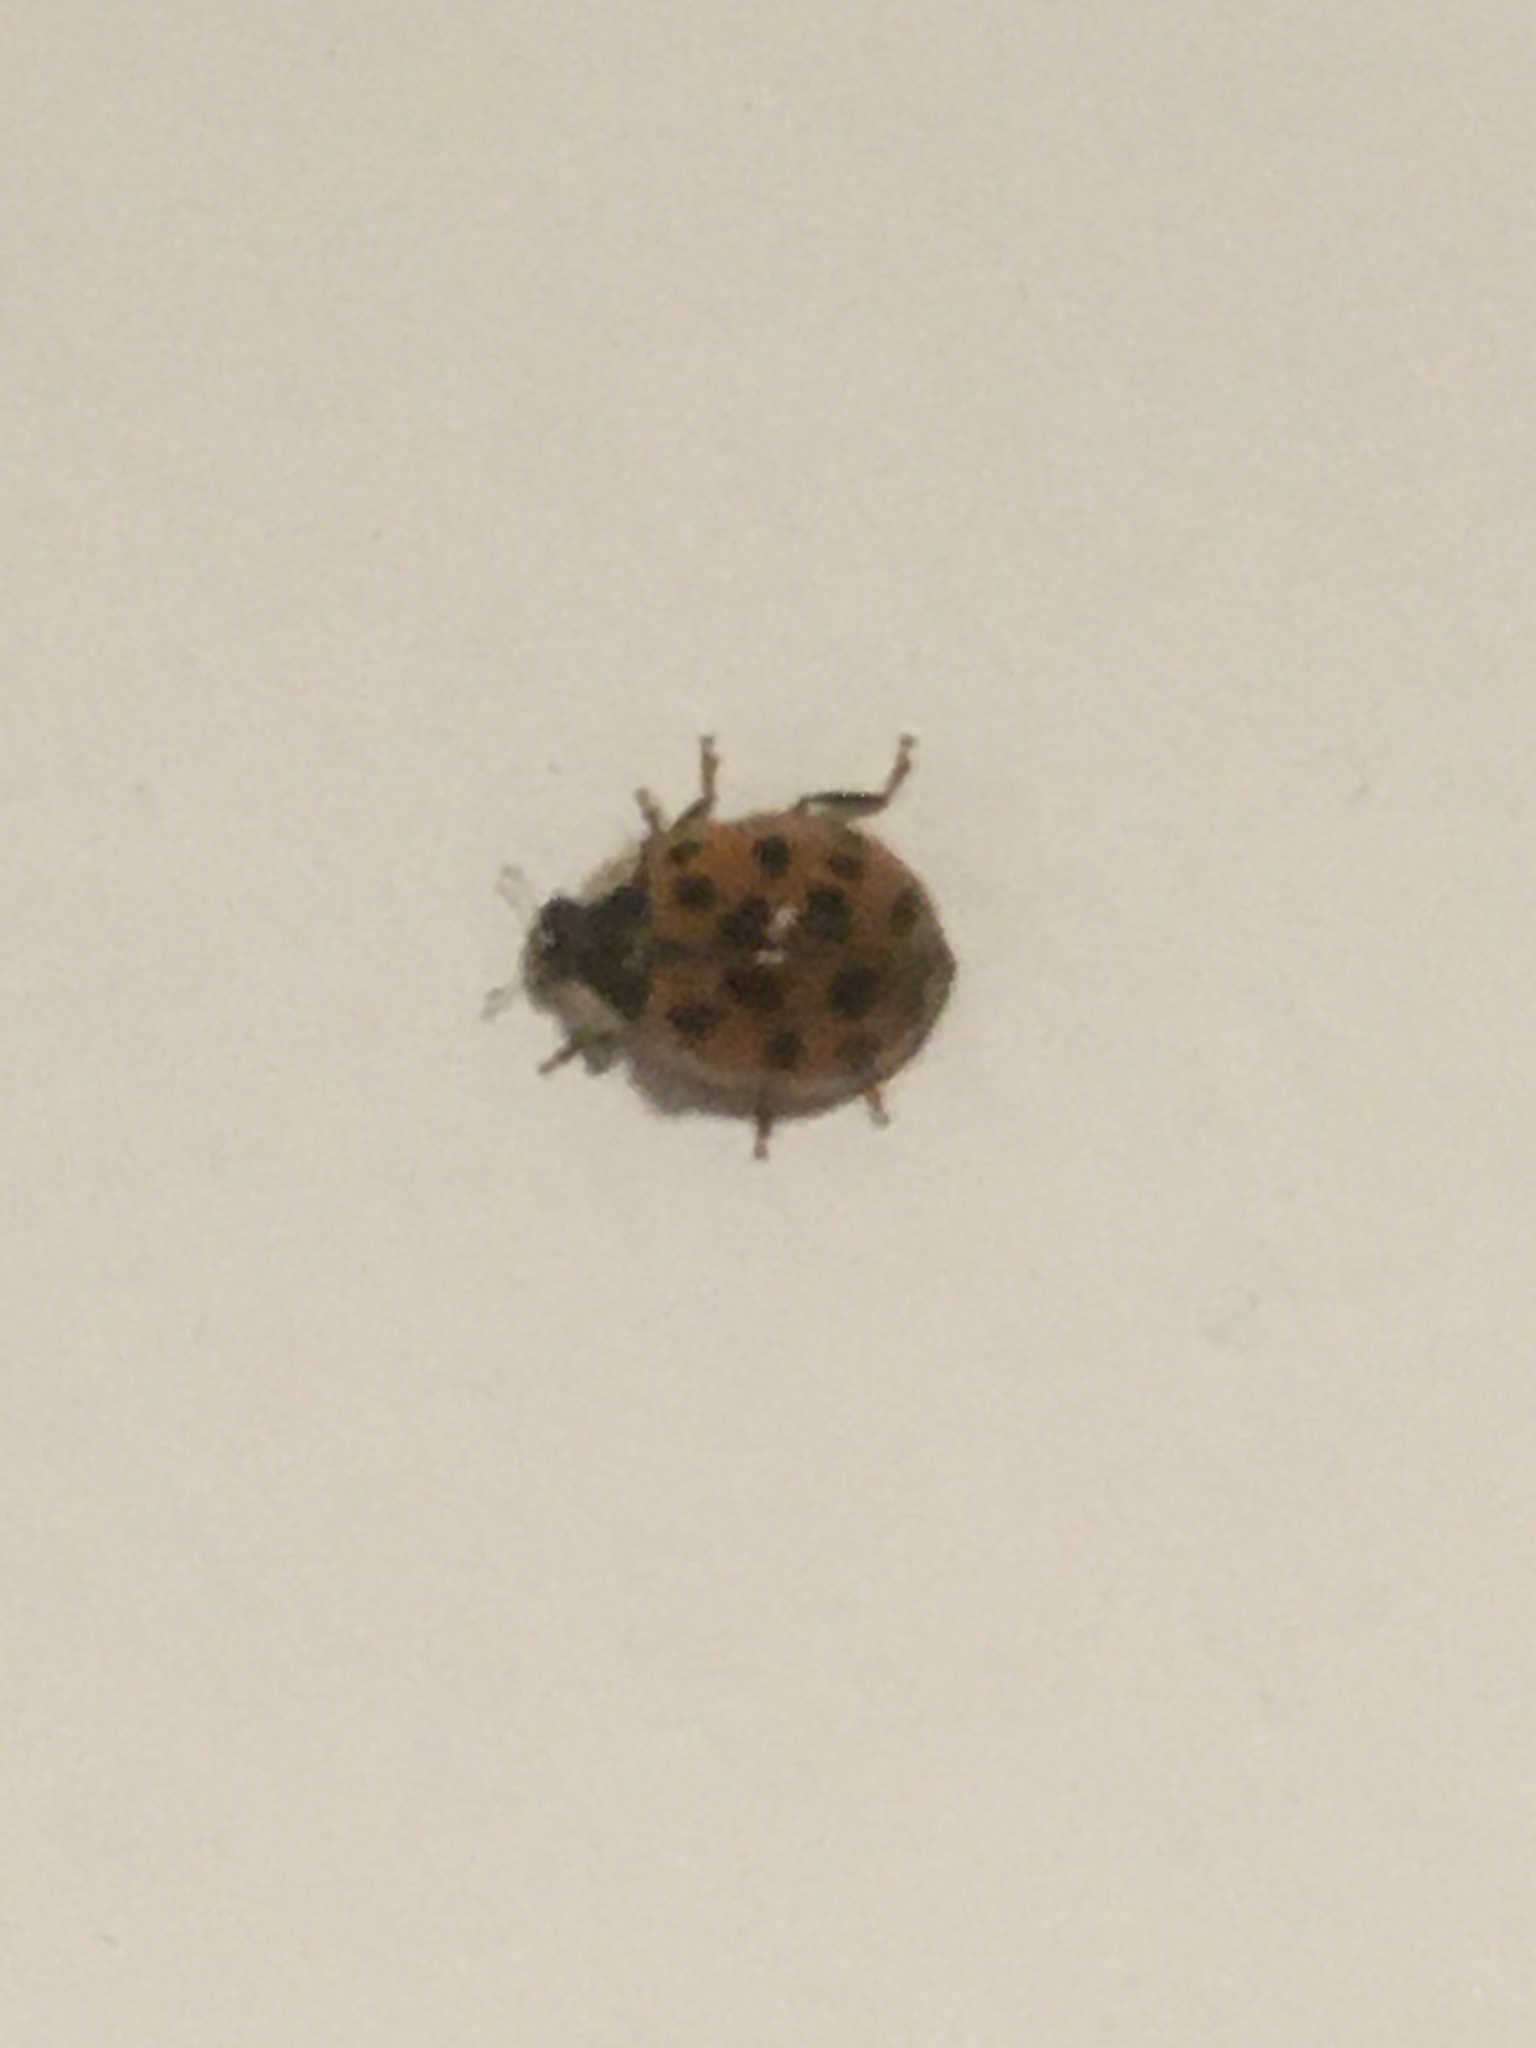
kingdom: Animalia
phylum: Arthropoda
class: Insecta
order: Coleoptera
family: Coccinellidae
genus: Harmonia
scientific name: Harmonia axyridis
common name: Harlequin ladybird
